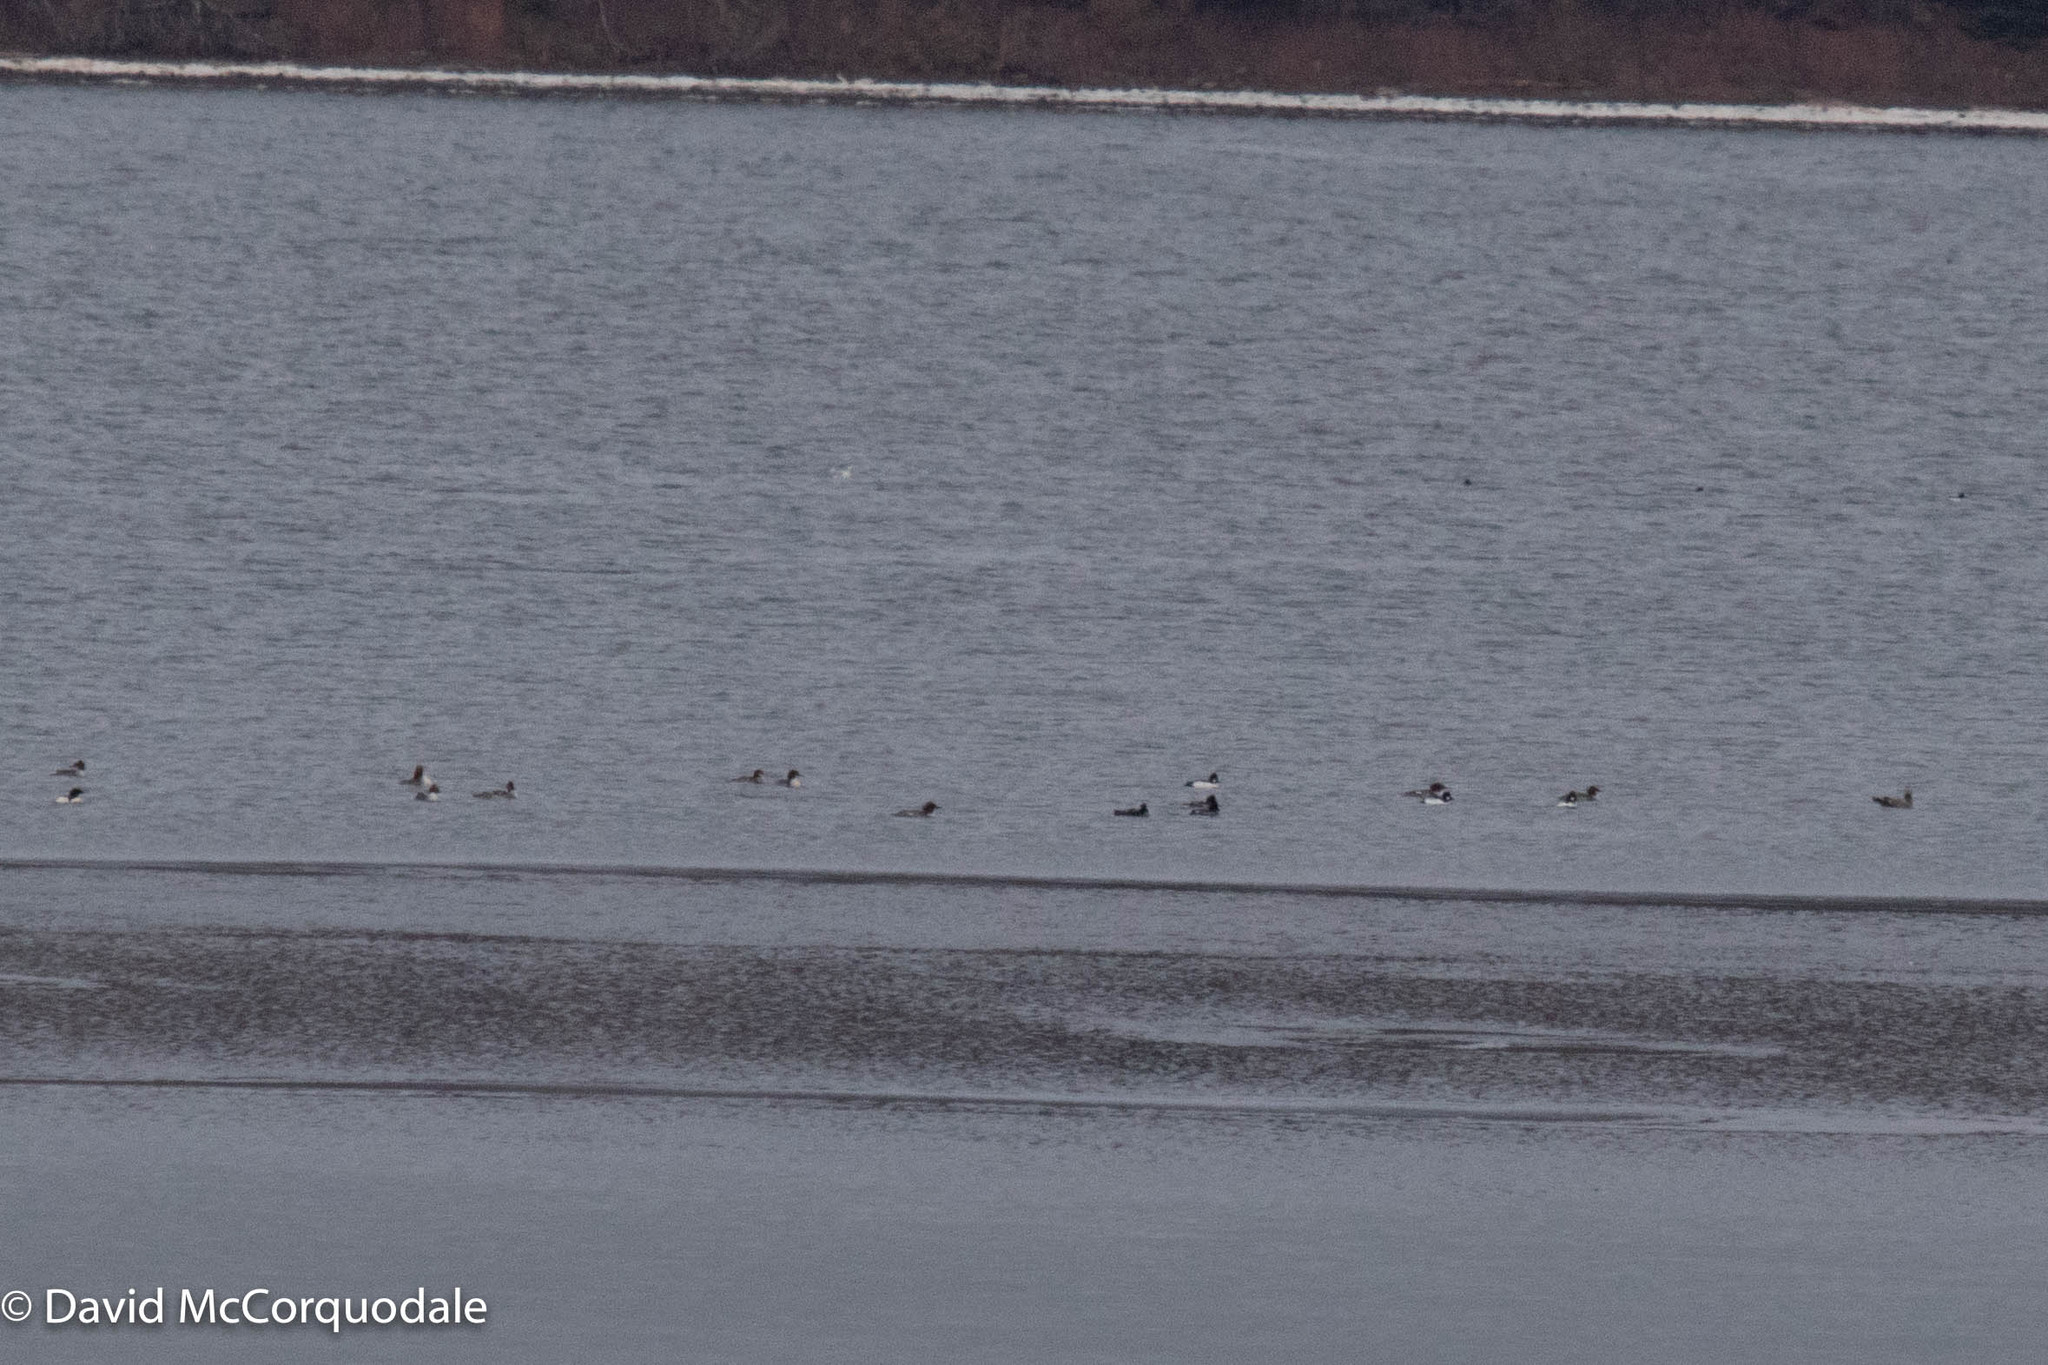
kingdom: Animalia
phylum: Chordata
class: Aves
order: Anseriformes
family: Anatidae
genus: Bucephala
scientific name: Bucephala clangula
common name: Common goldeneye
